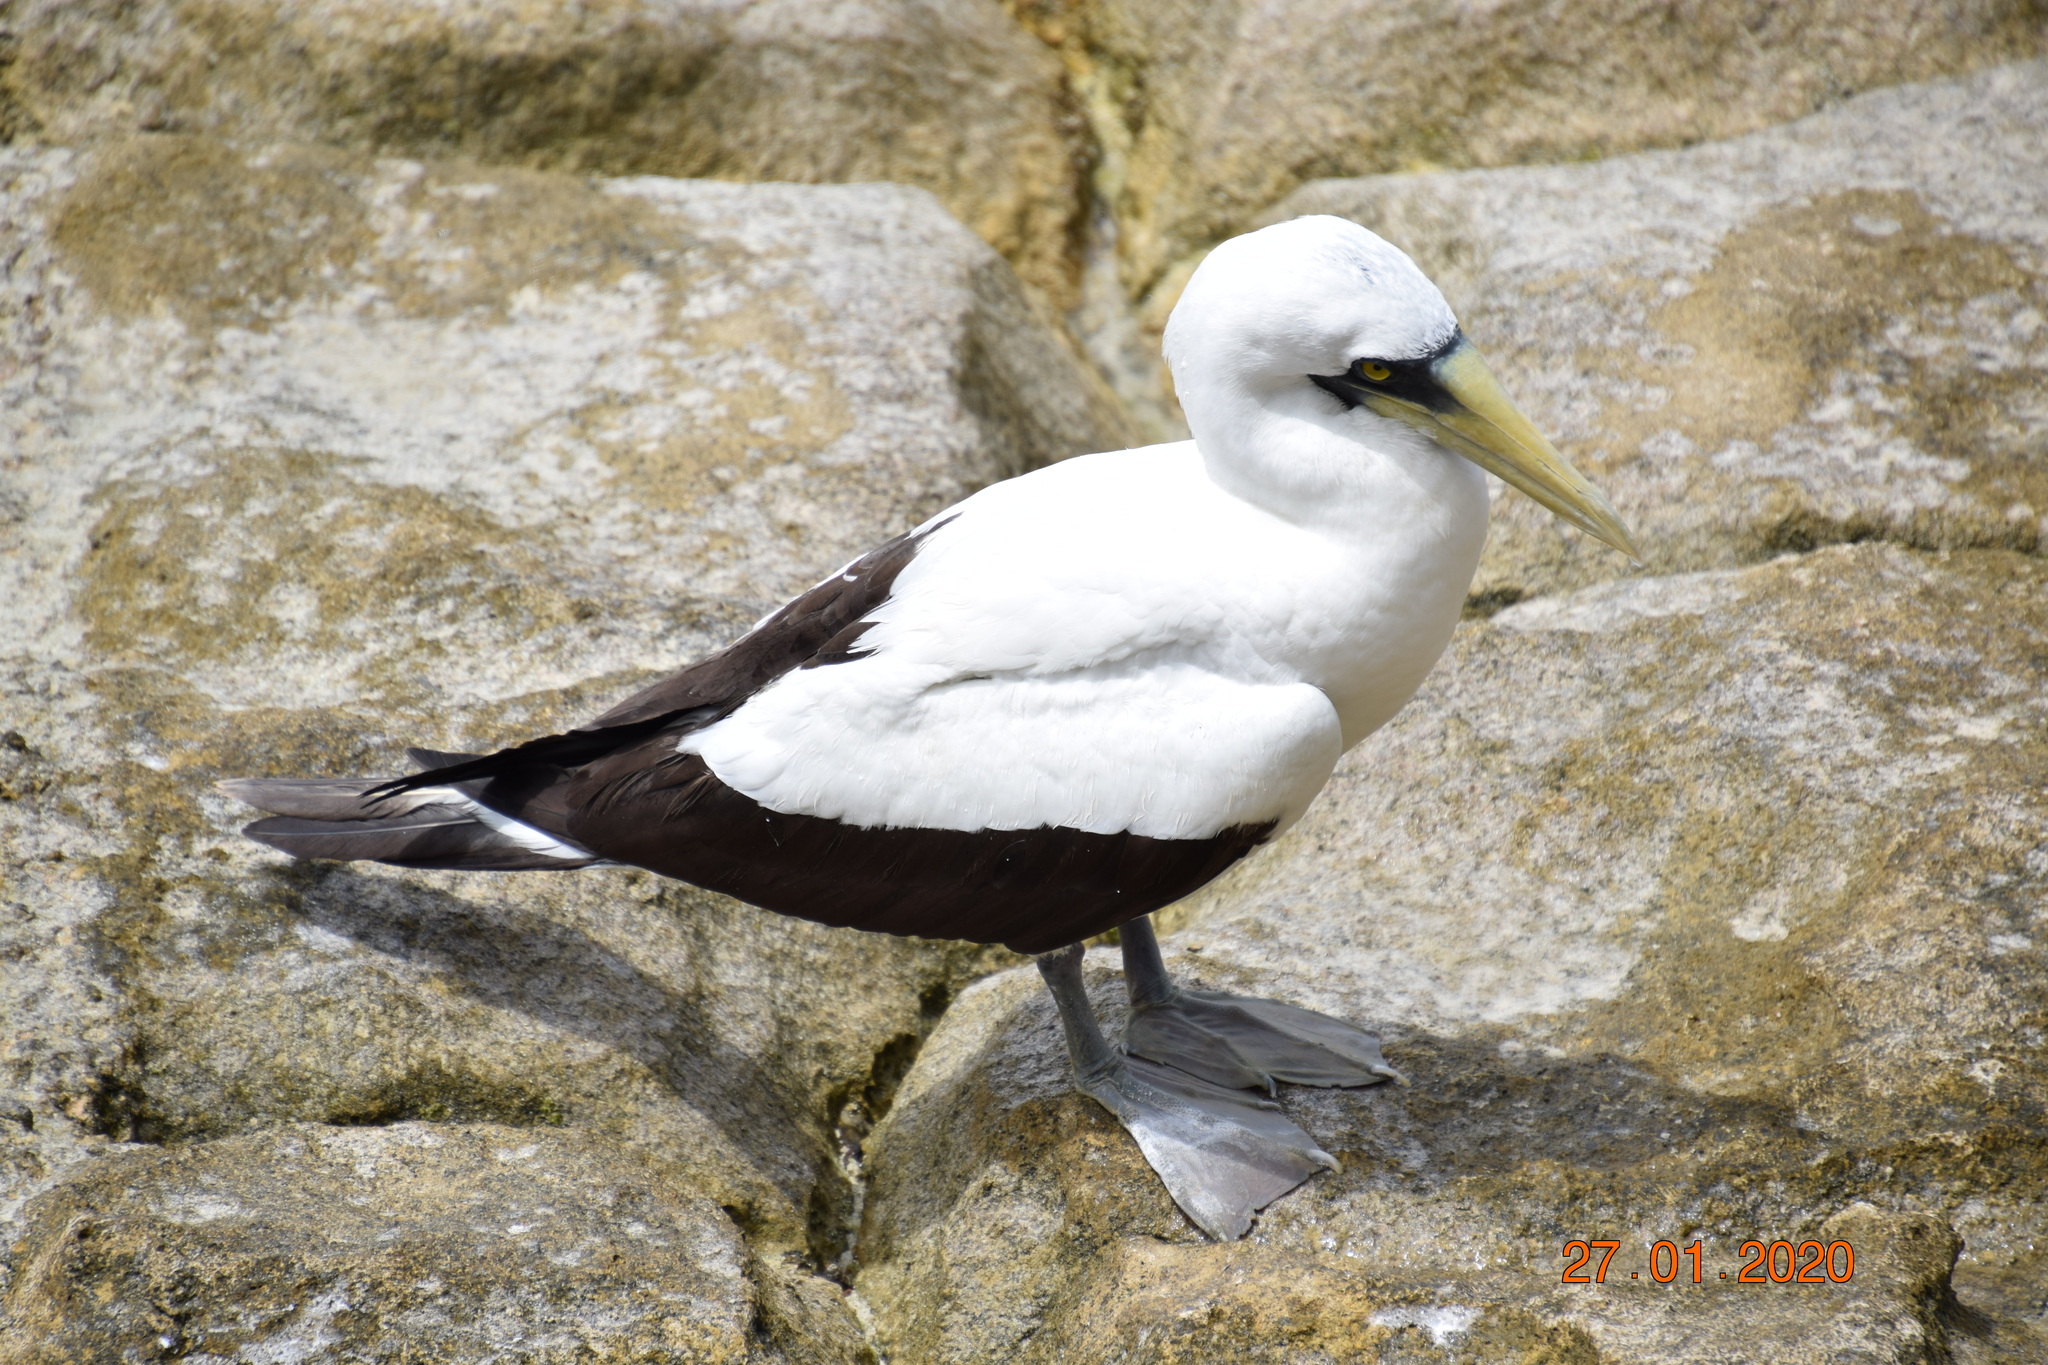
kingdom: Animalia
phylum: Chordata
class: Aves
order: Suliformes
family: Sulidae
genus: Sula
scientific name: Sula dactylatra
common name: Masked booby
